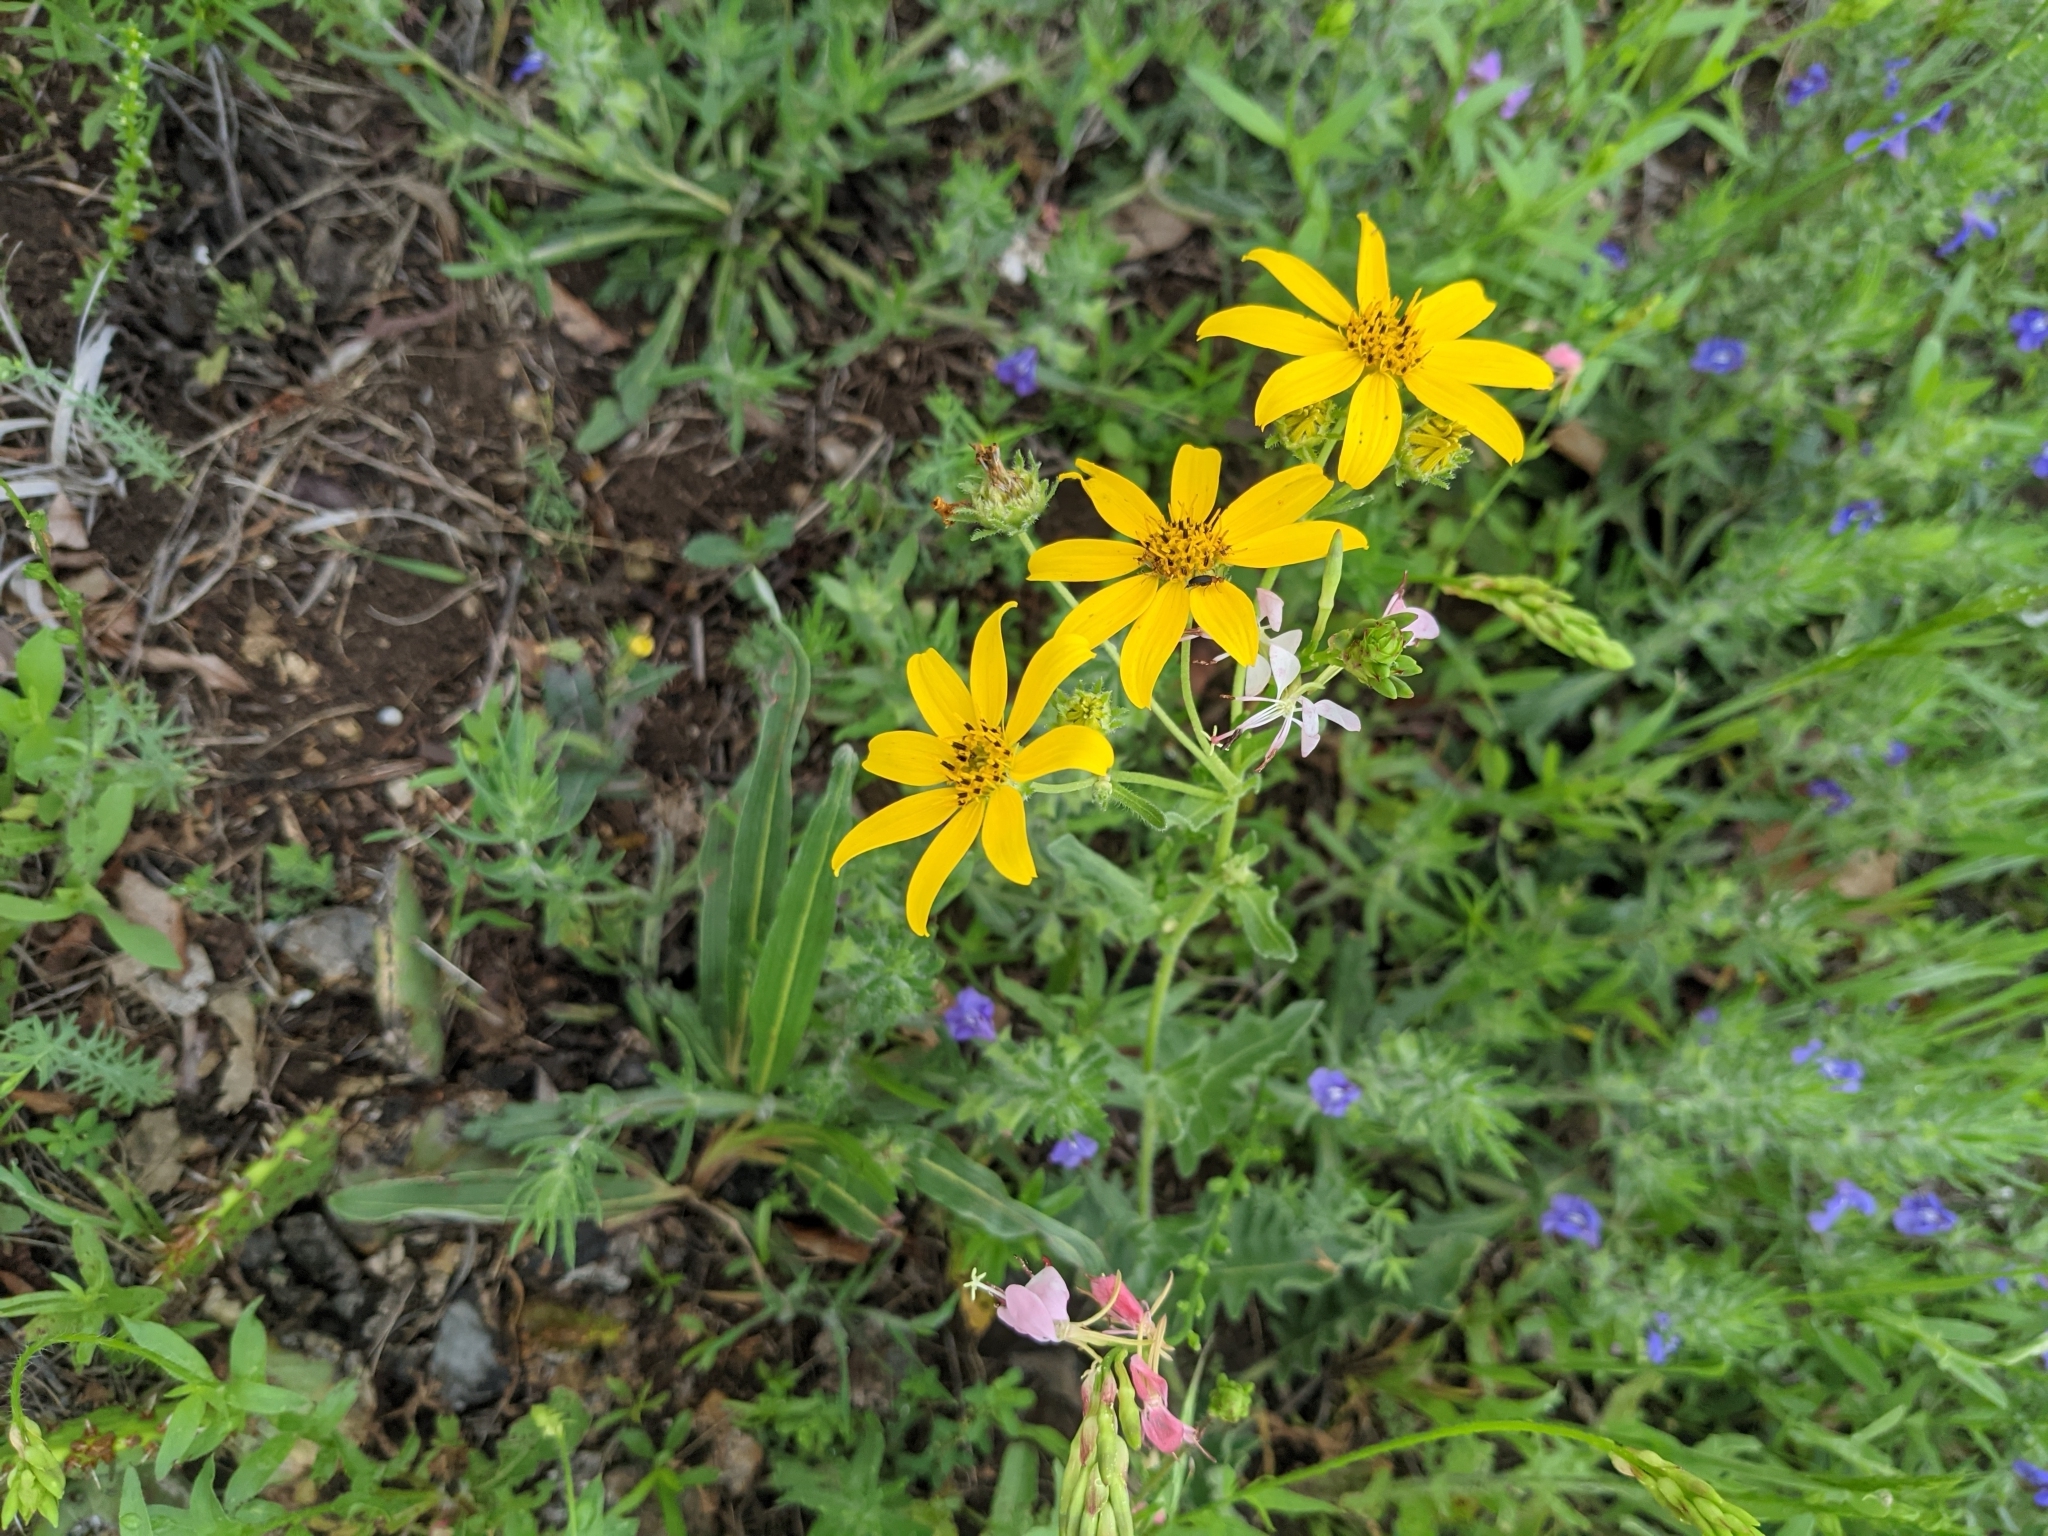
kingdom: Plantae
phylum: Tracheophyta
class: Magnoliopsida
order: Asterales
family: Asteraceae
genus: Engelmannia
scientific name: Engelmannia peristenia
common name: Engelmann's daisy
